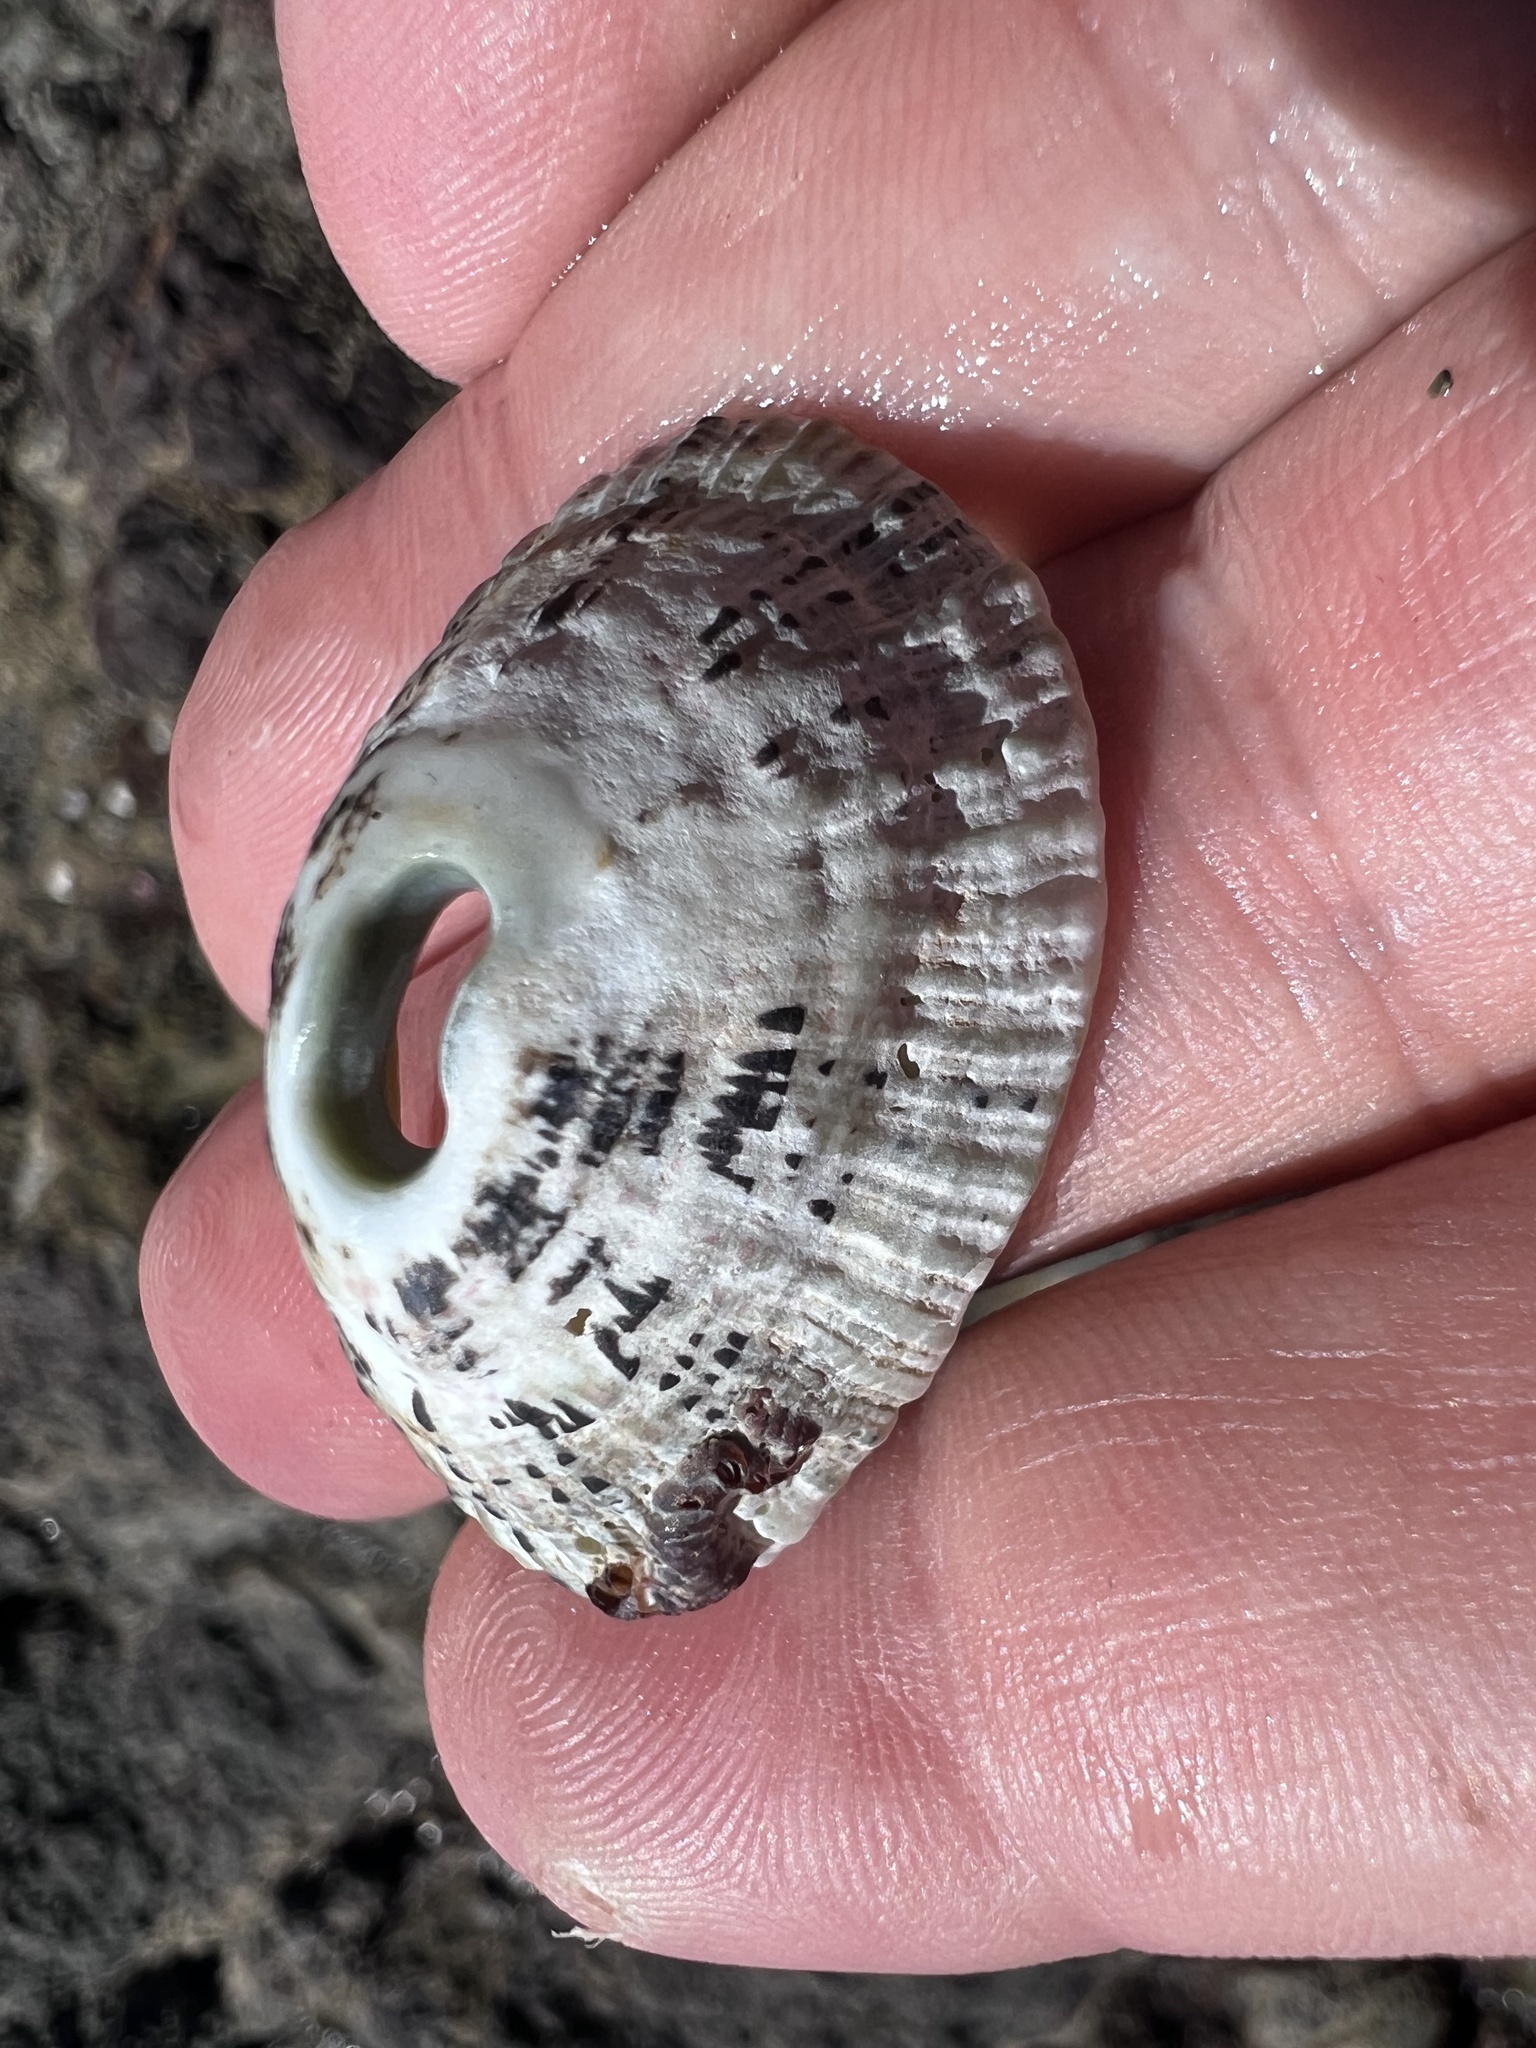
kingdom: Animalia
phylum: Mollusca
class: Gastropoda
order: Lepetellida
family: Fissurellidae
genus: Fissurella
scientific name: Fissurella virescens
